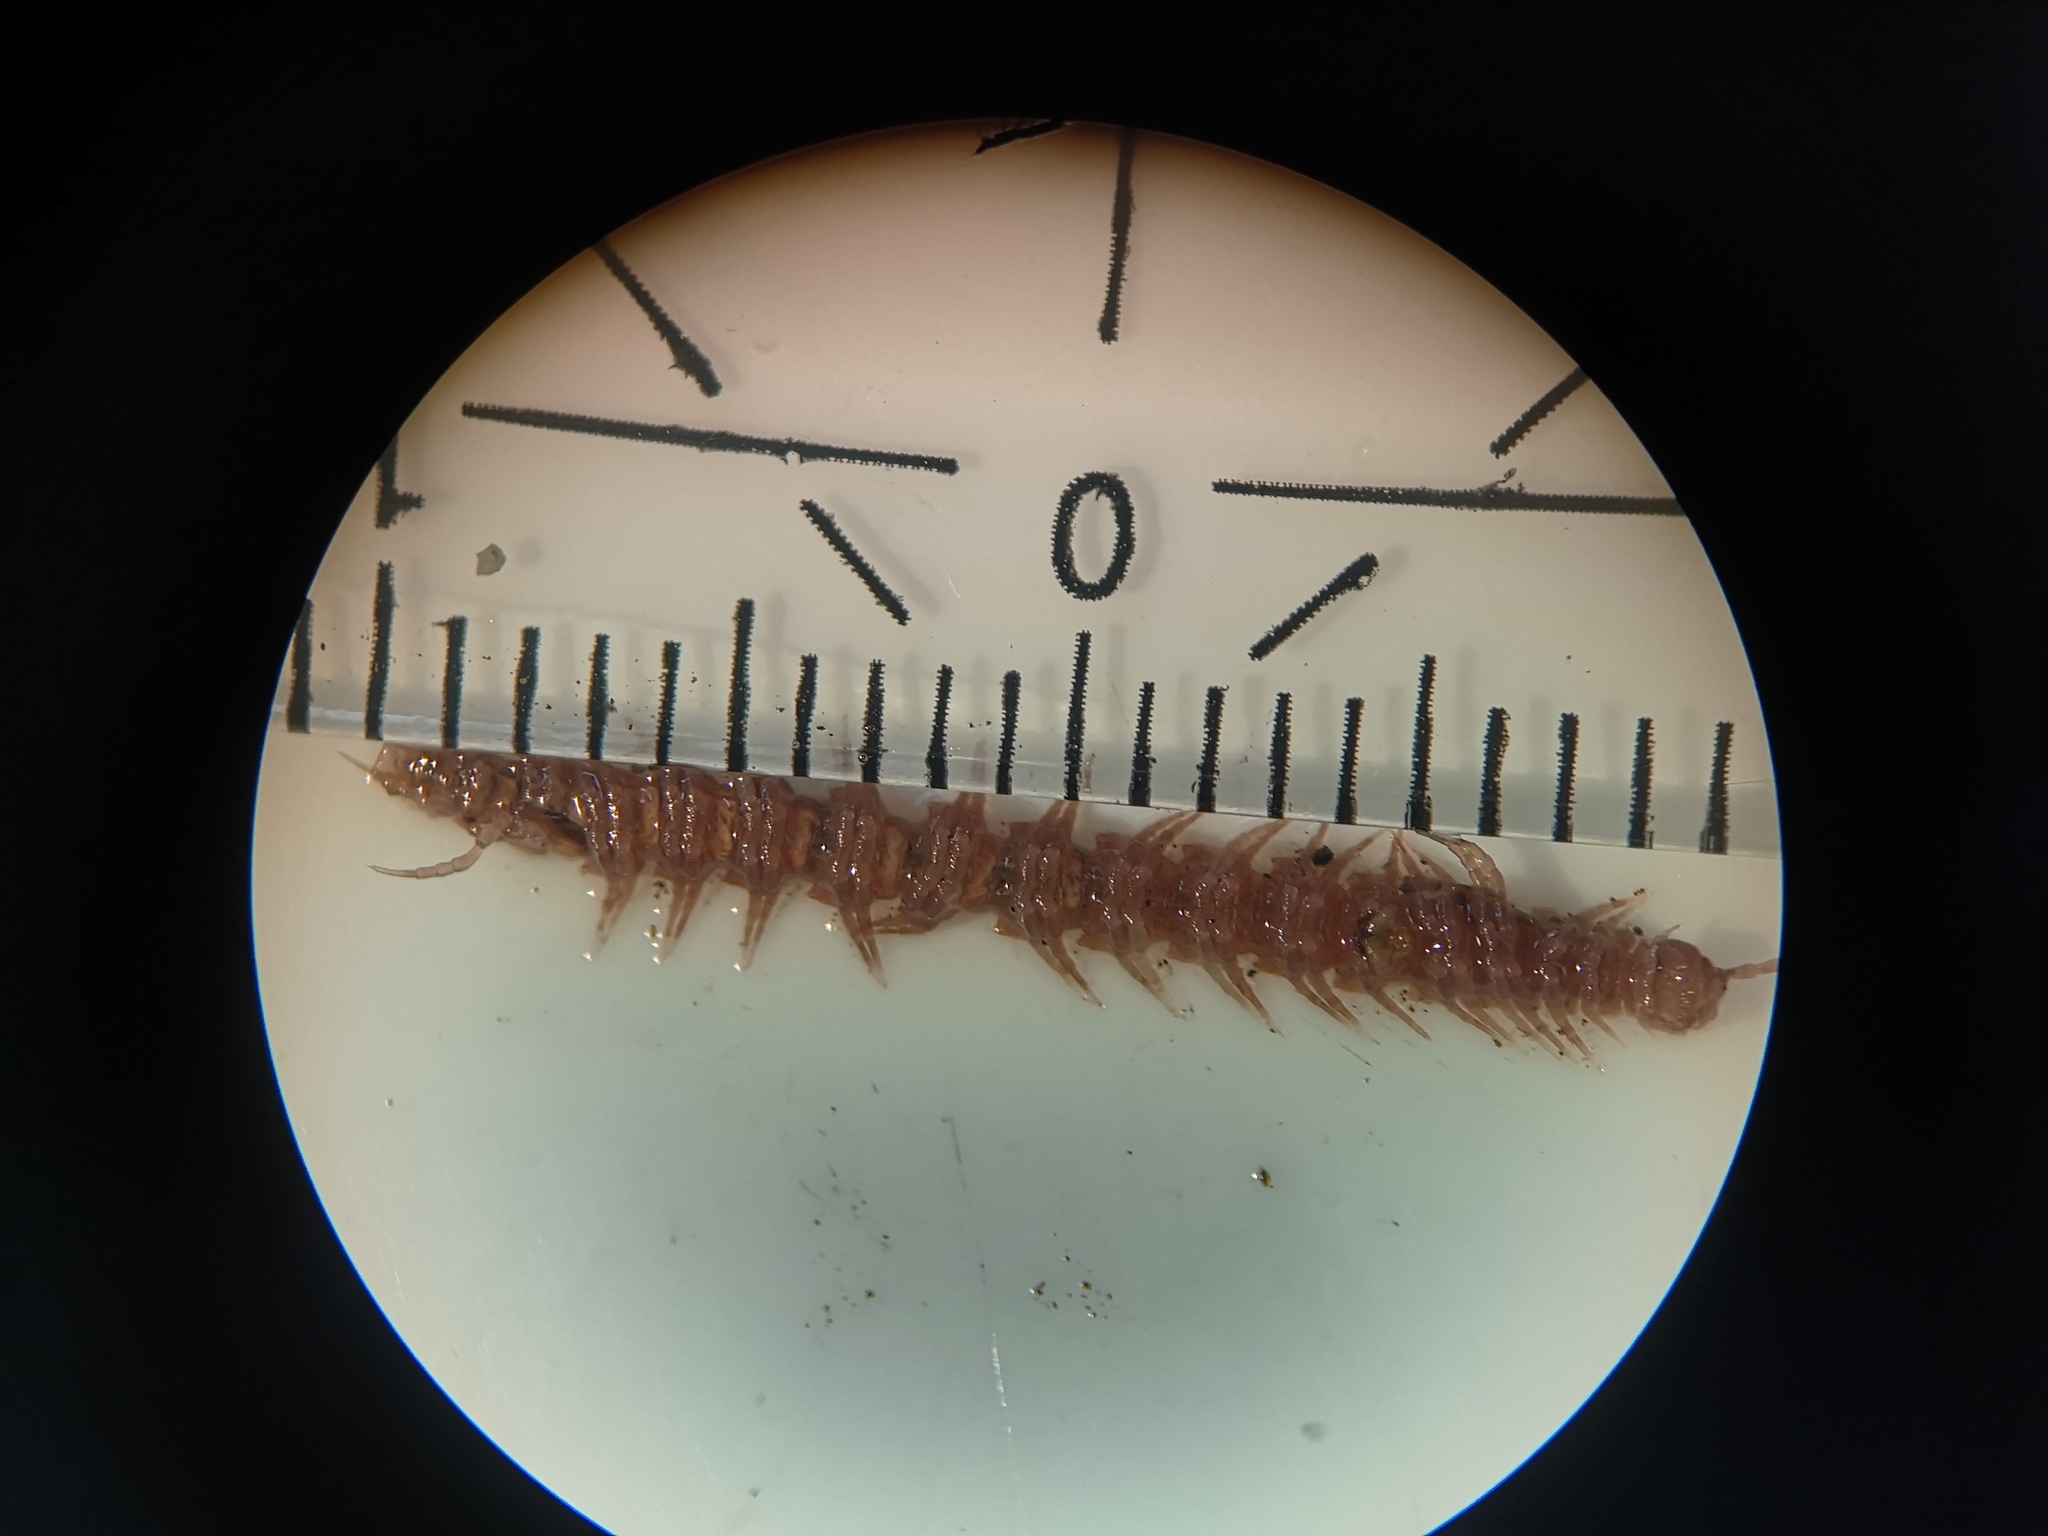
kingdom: Animalia
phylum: Arthropoda
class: Diplopoda
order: Polydesmida
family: Polydesmidae
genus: Polydesmus
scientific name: Polydesmus denticulatus
